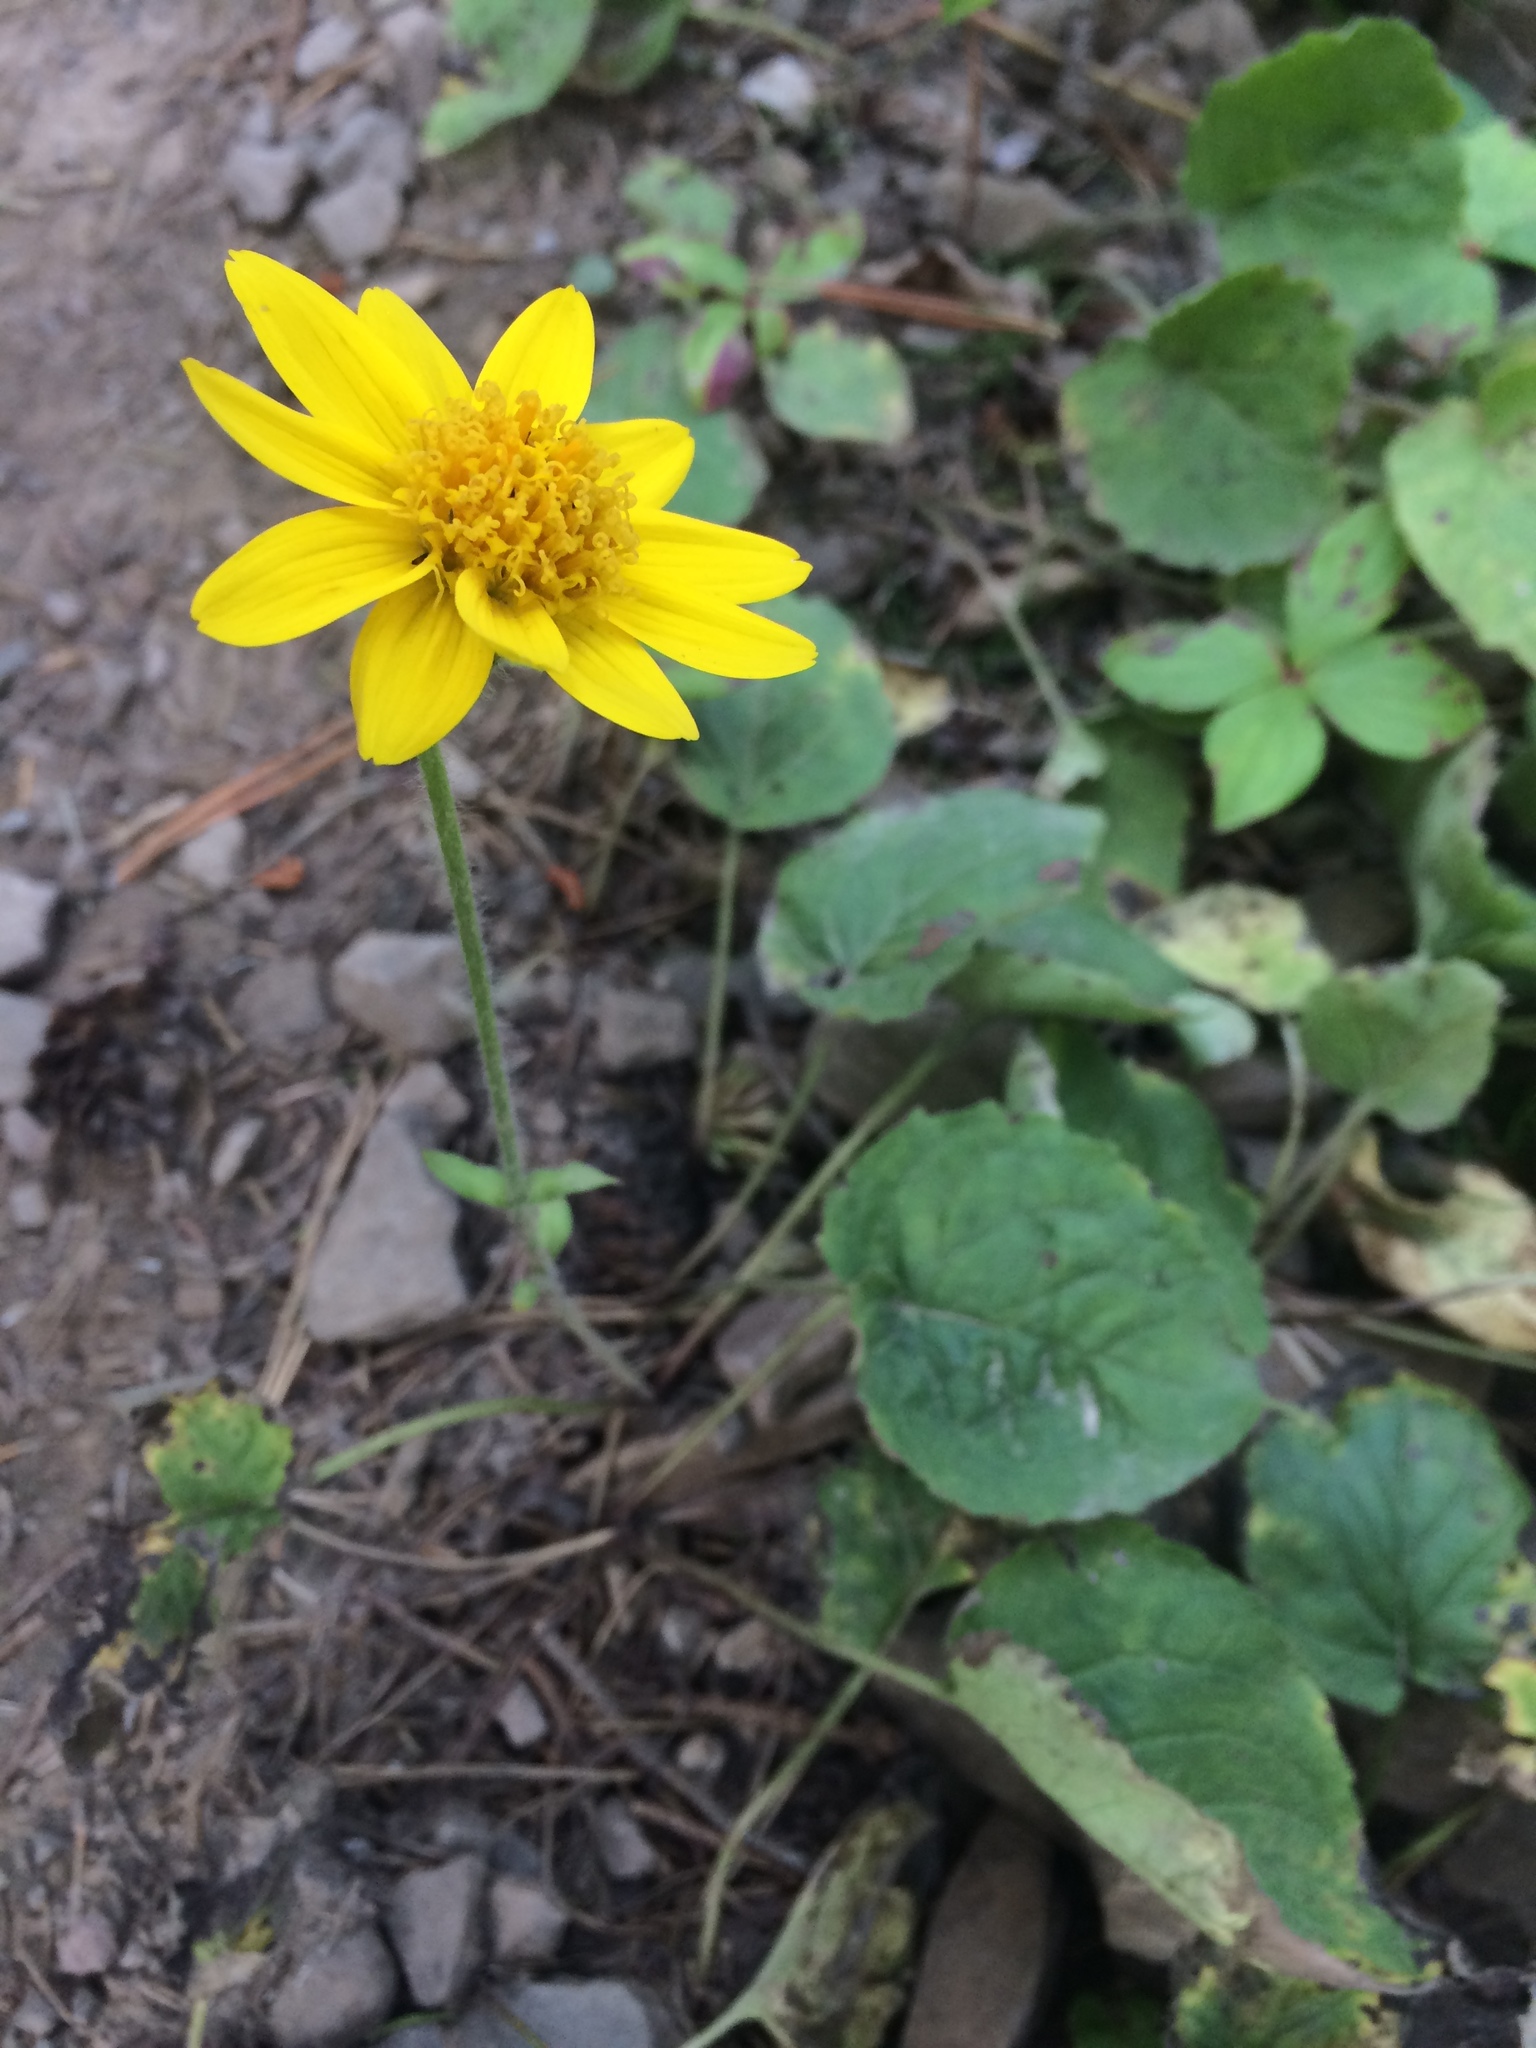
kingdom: Plantae
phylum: Tracheophyta
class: Magnoliopsida
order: Asterales
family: Asteraceae
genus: Arnica
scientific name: Arnica cordifolia
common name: Heart-leaf arnica
